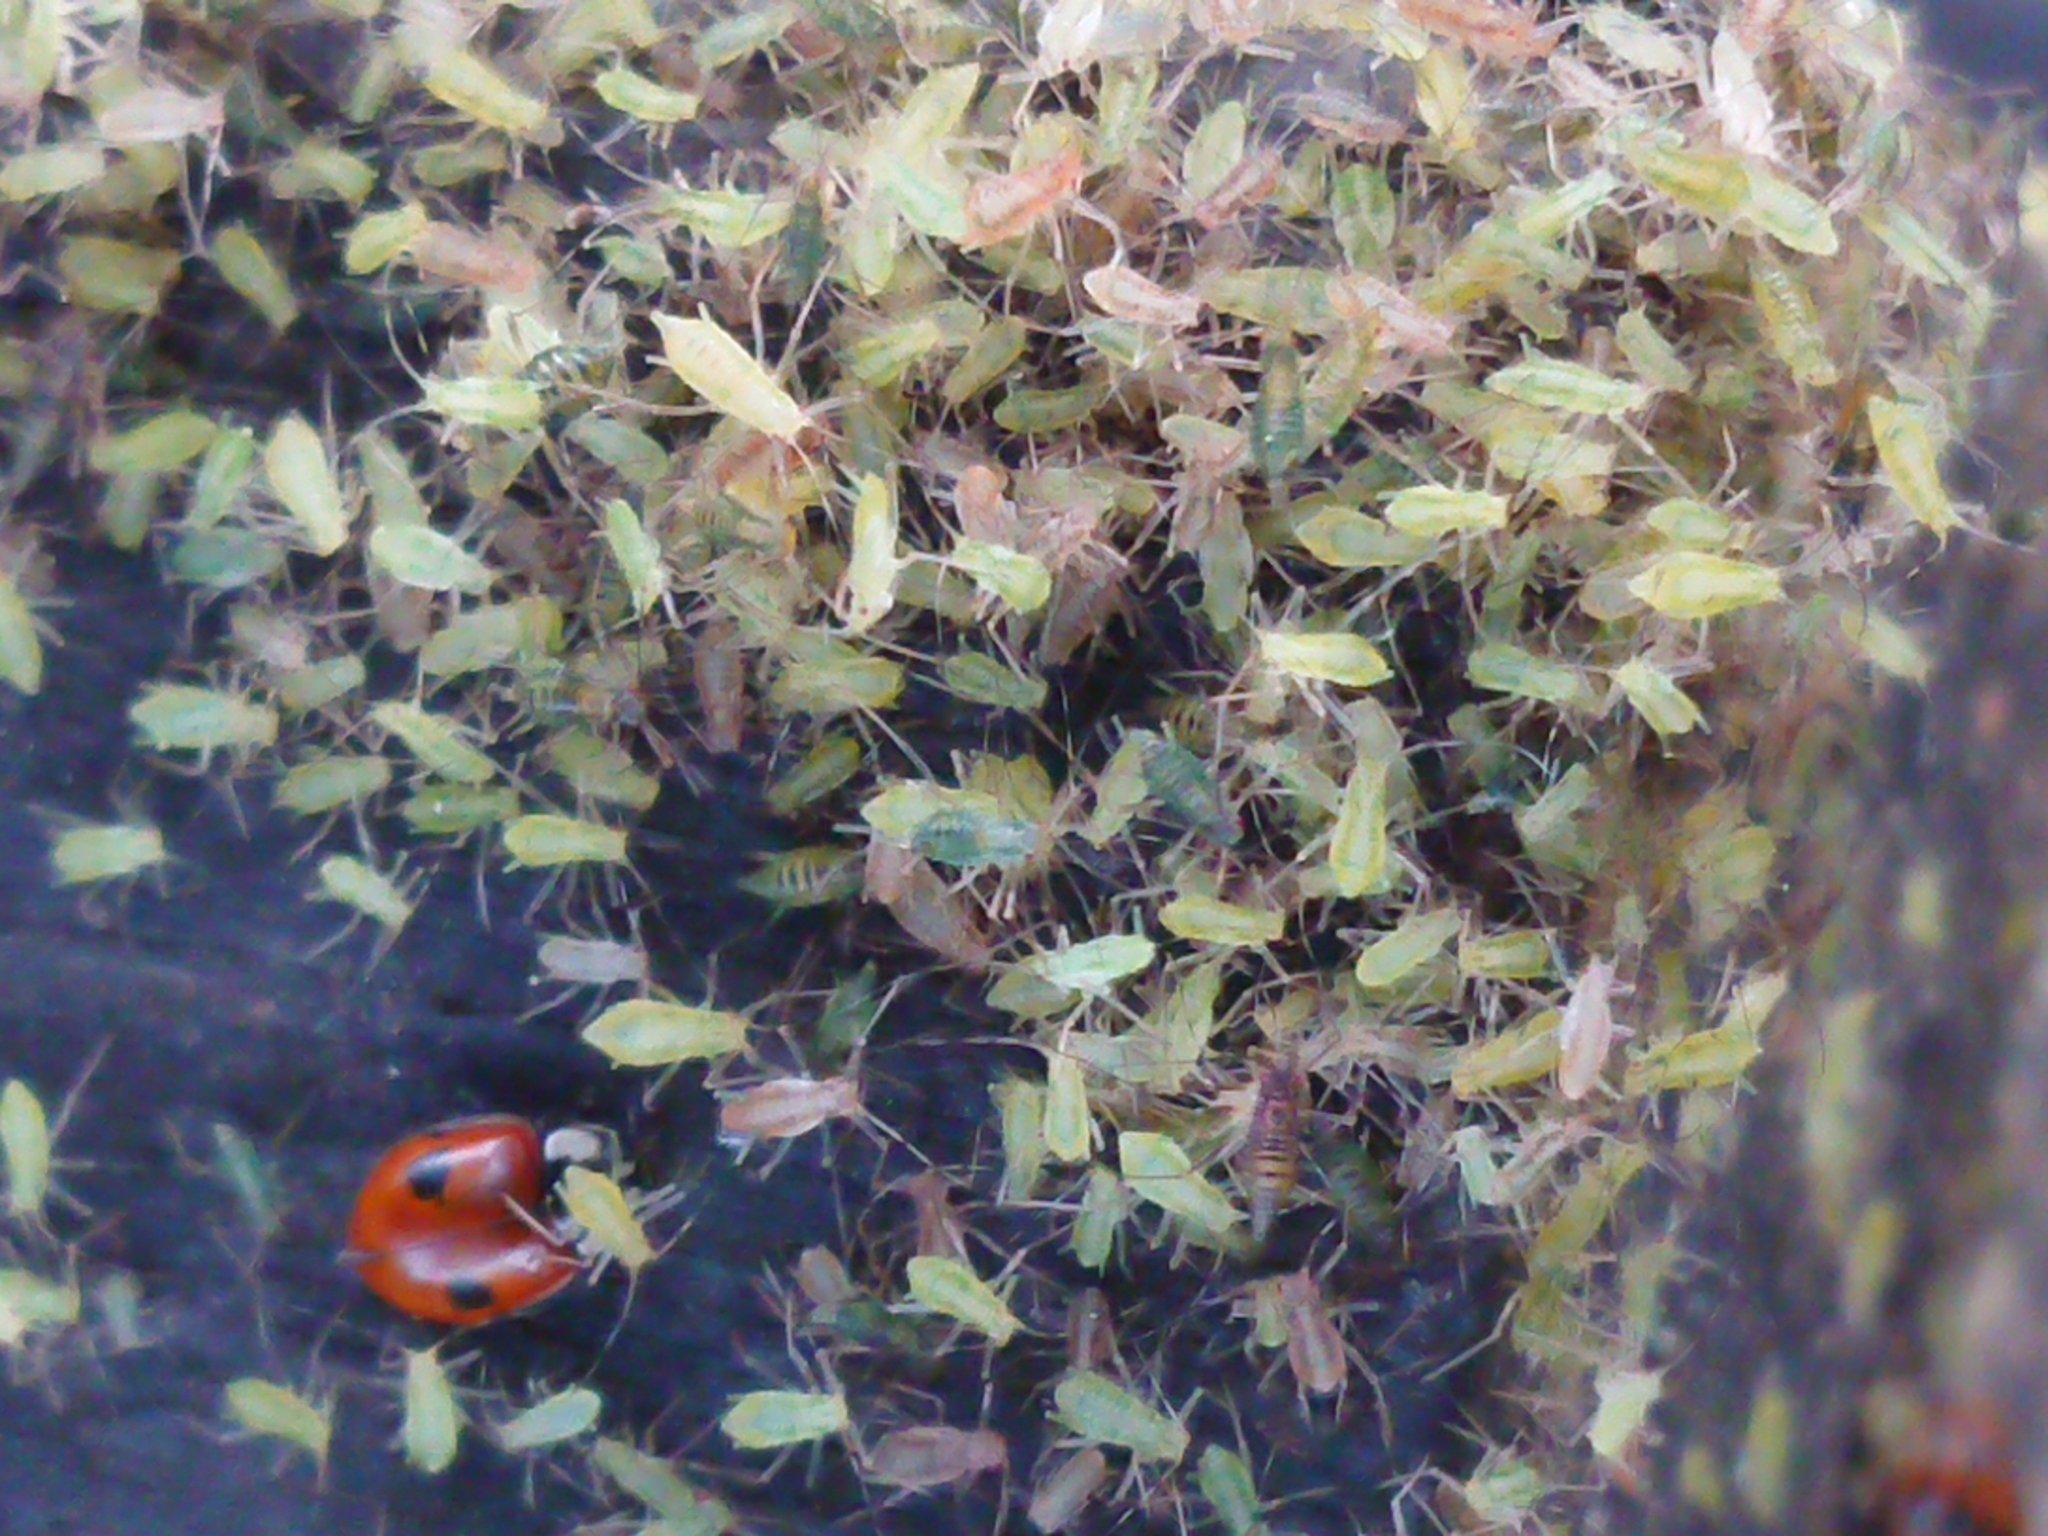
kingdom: Animalia
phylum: Arthropoda
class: Insecta
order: Coleoptera
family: Coccinellidae
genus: Adalia
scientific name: Adalia bipunctata
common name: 2-spot ladybird
